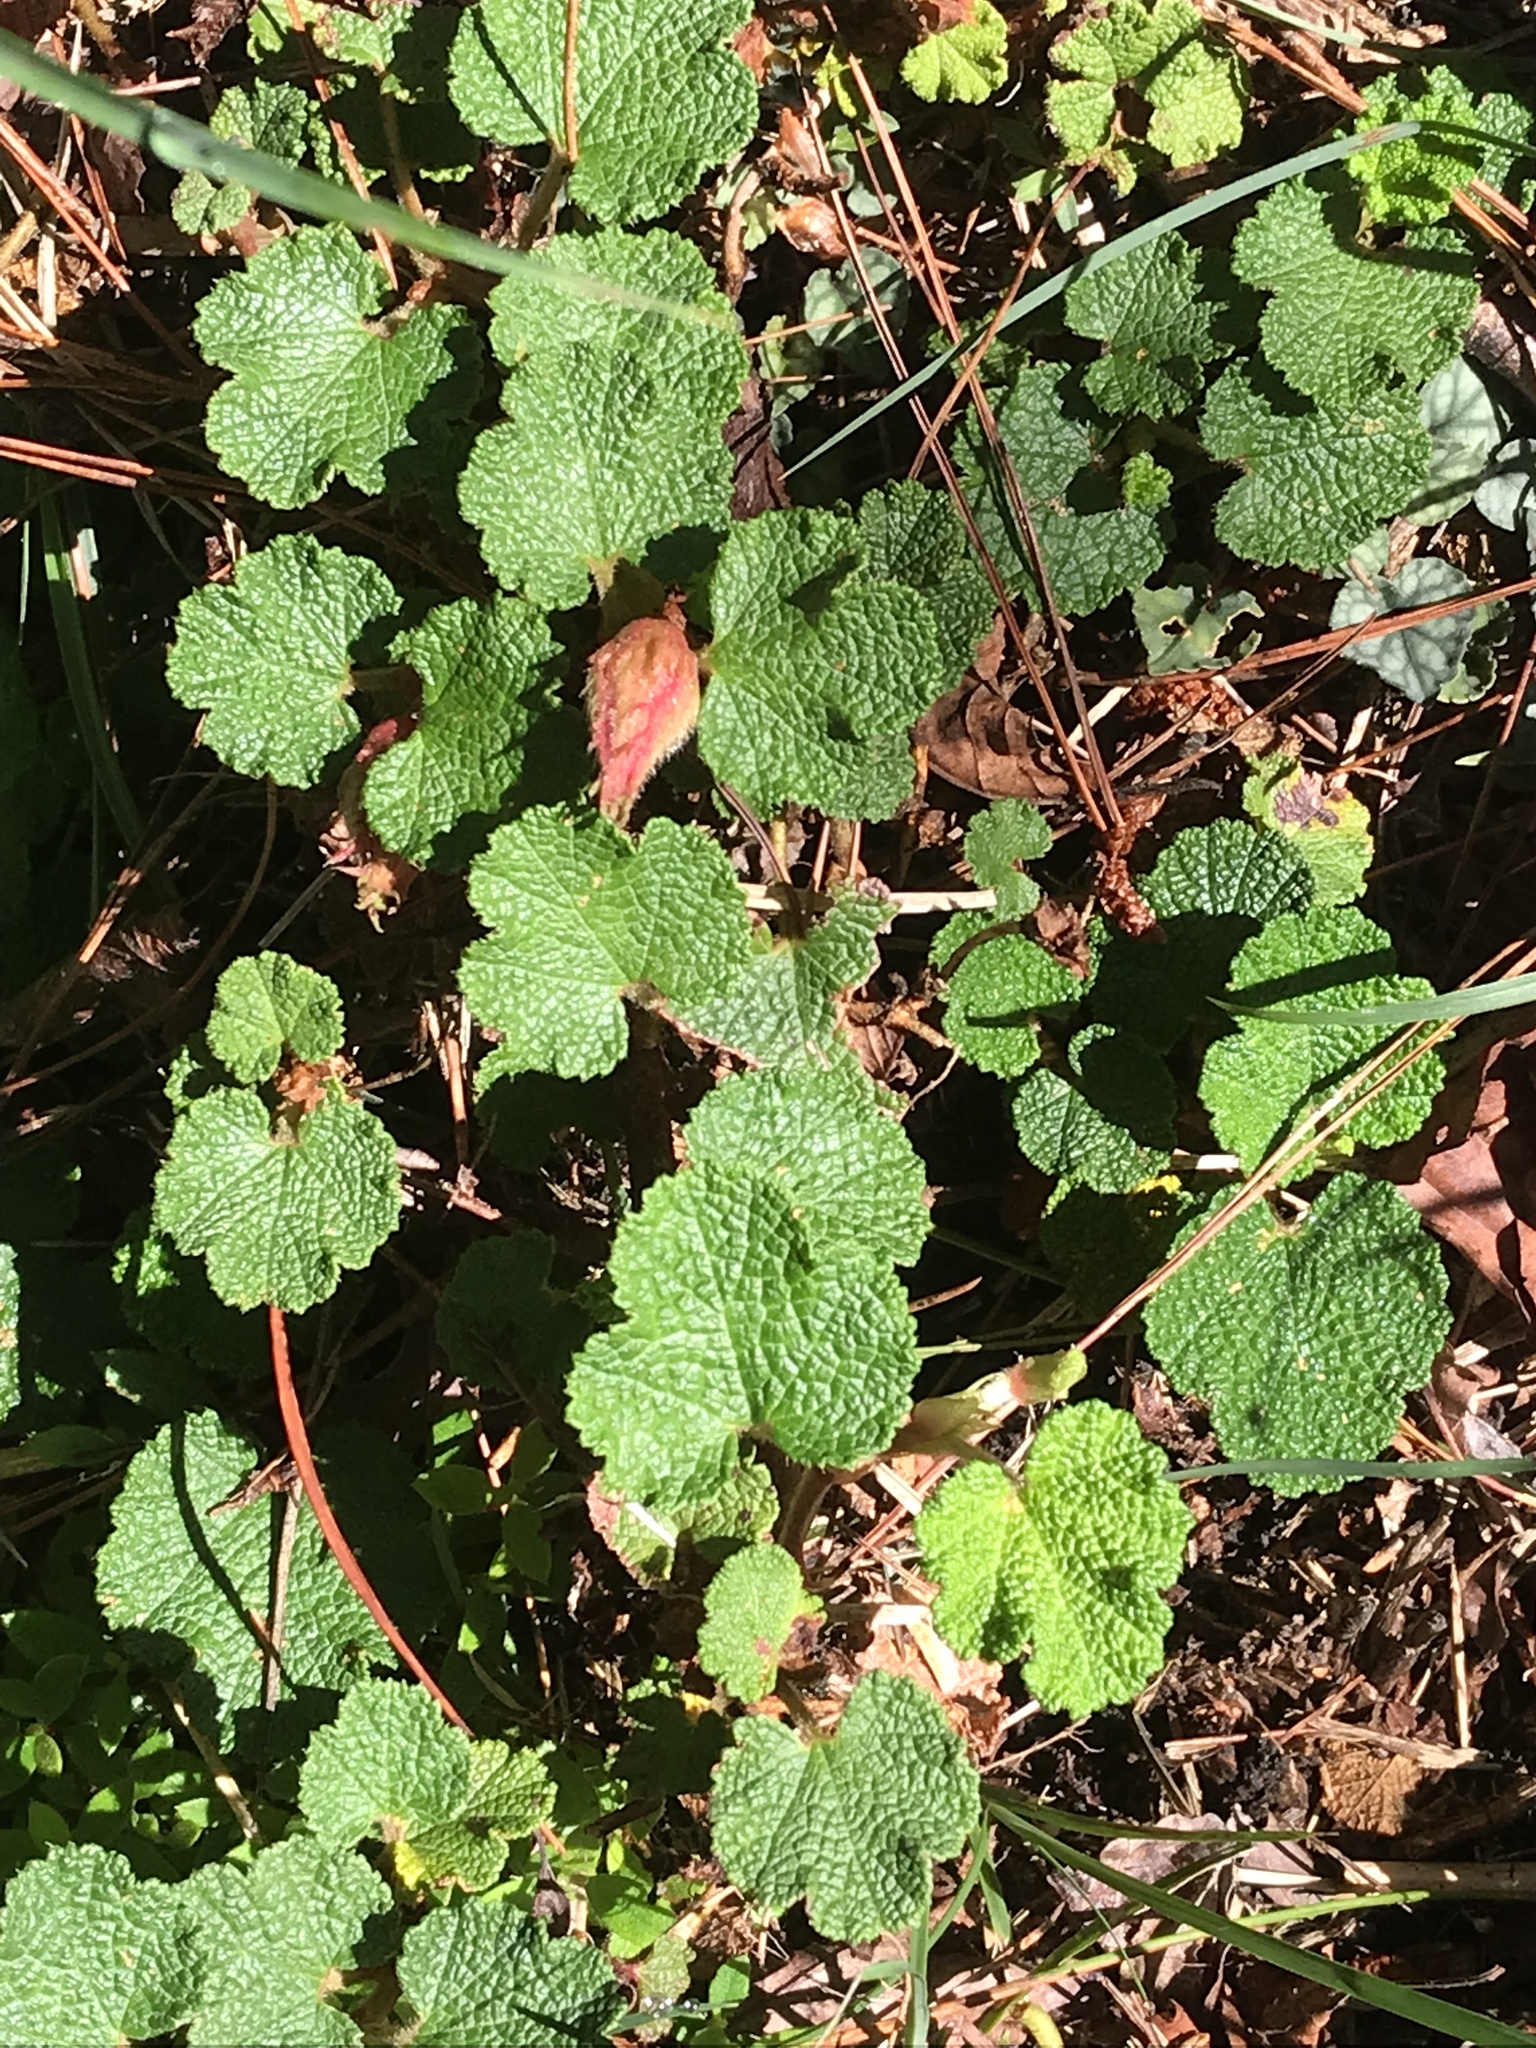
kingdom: Plantae
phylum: Tracheophyta
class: Magnoliopsida
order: Rosales
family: Rosaceae
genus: Rubus
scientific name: Rubus rolfei
